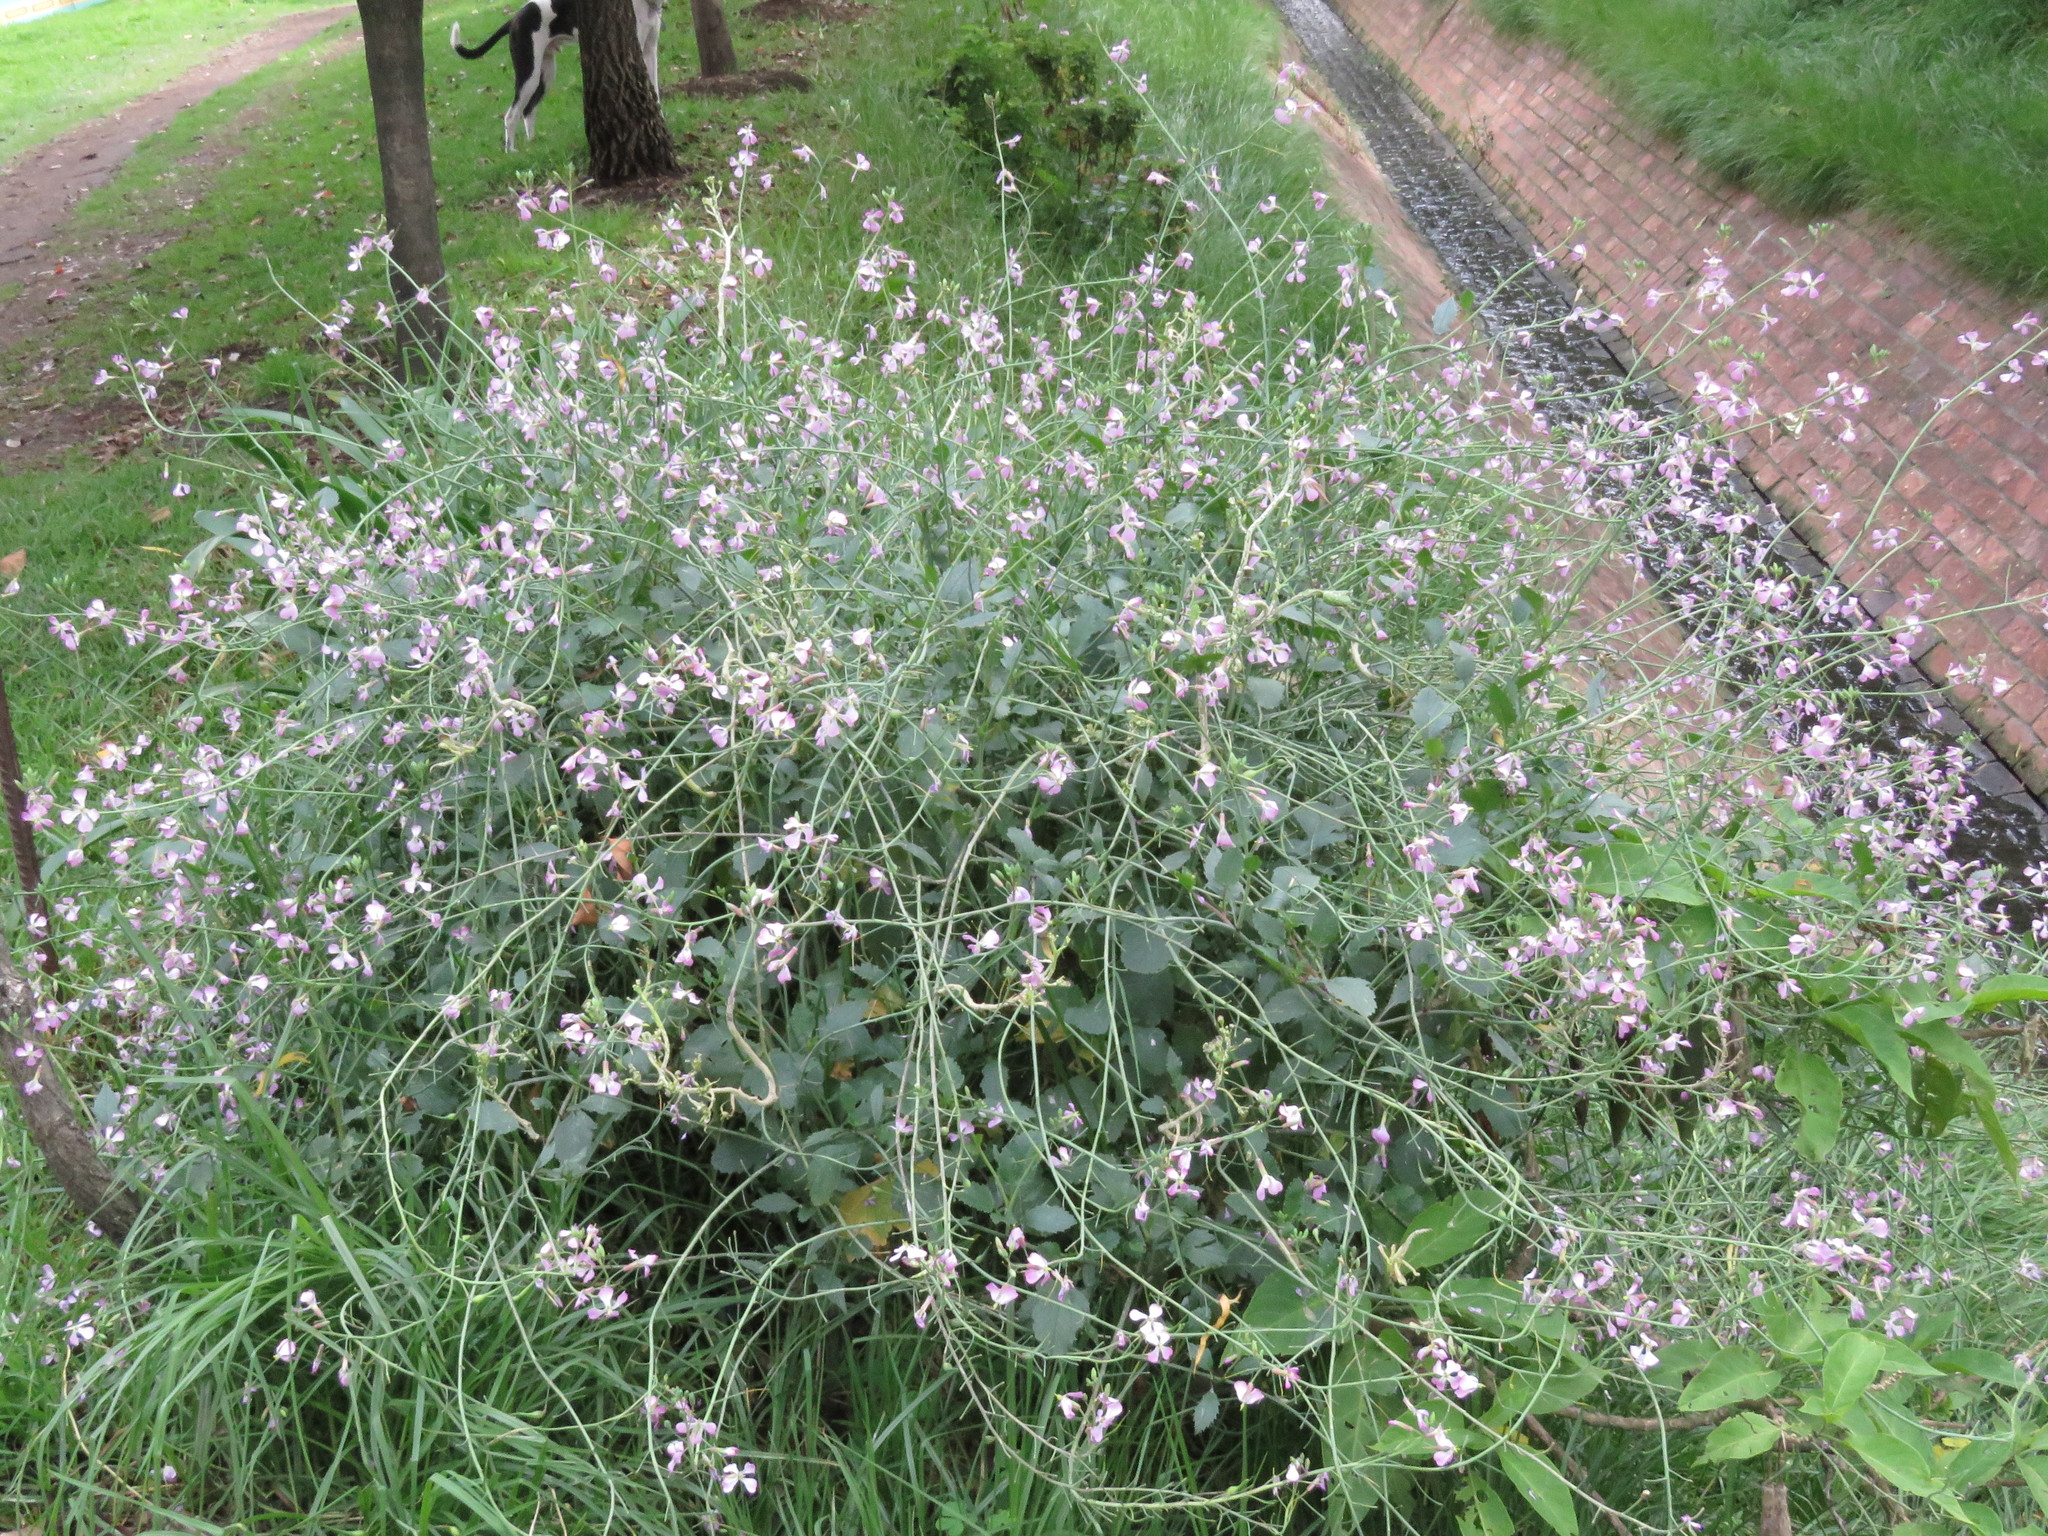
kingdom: Plantae
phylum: Tracheophyta
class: Magnoliopsida
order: Brassicales
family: Brassicaceae
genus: Raphanus
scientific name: Raphanus sativus
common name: Cultivated radish
